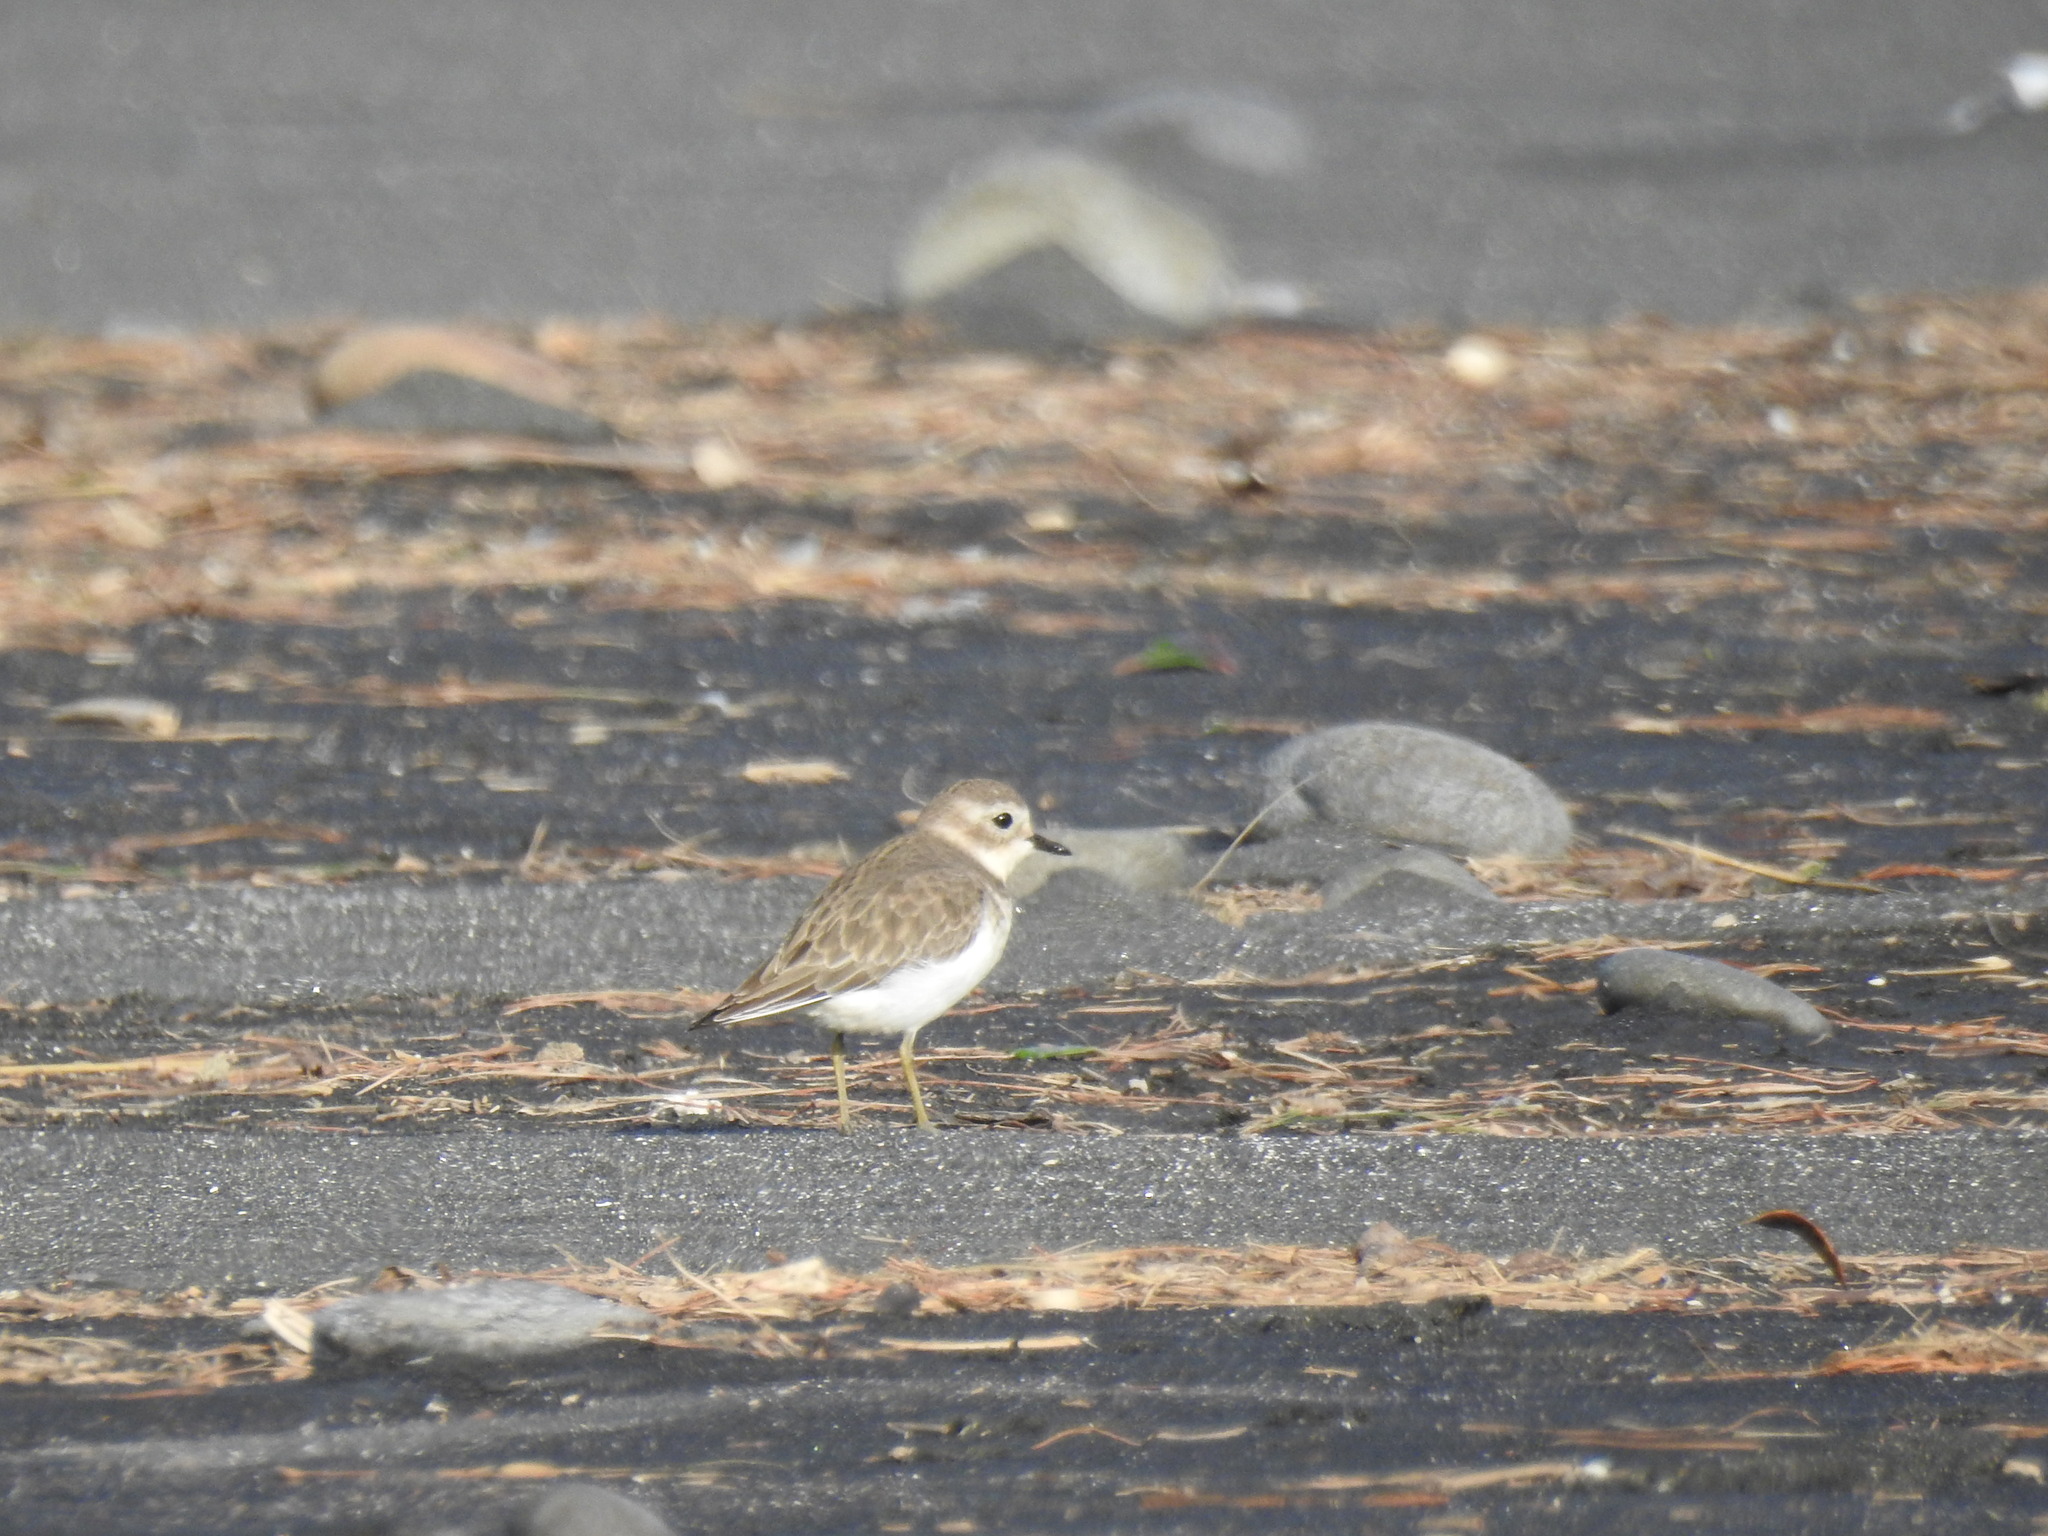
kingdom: Animalia
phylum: Chordata
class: Aves
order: Charadriiformes
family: Charadriidae
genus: Anarhynchus
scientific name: Anarhynchus
